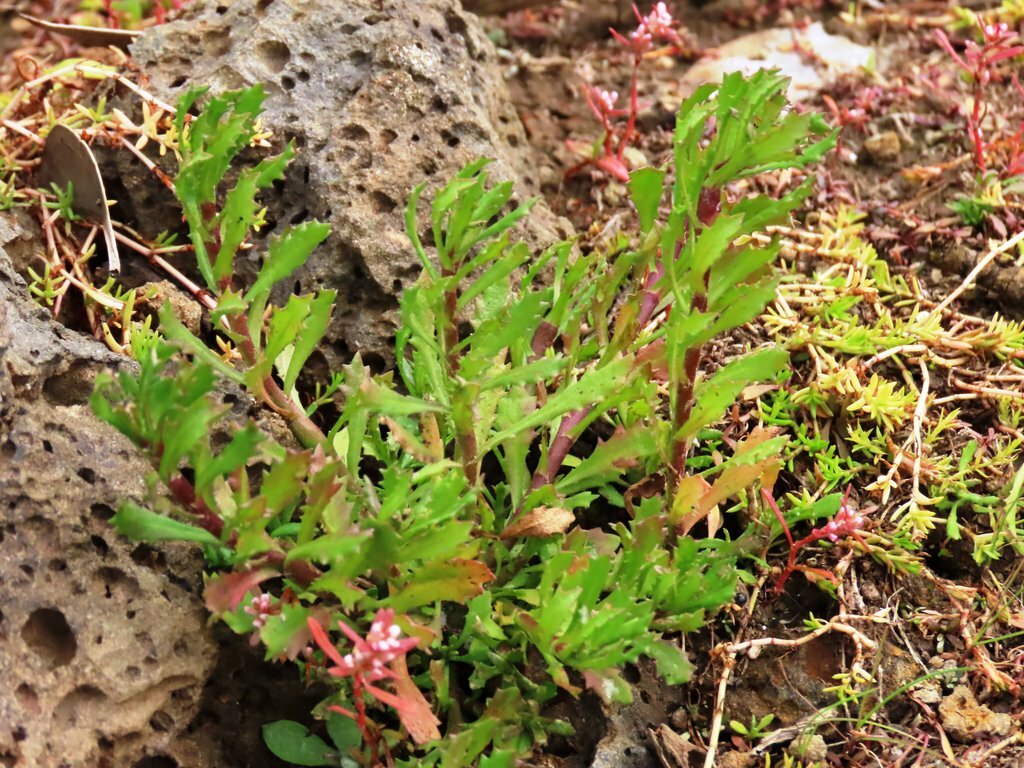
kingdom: Plantae
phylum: Tracheophyta
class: Magnoliopsida
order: Asterales
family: Asteraceae
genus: Centipeda
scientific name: Centipeda cunninghamii
